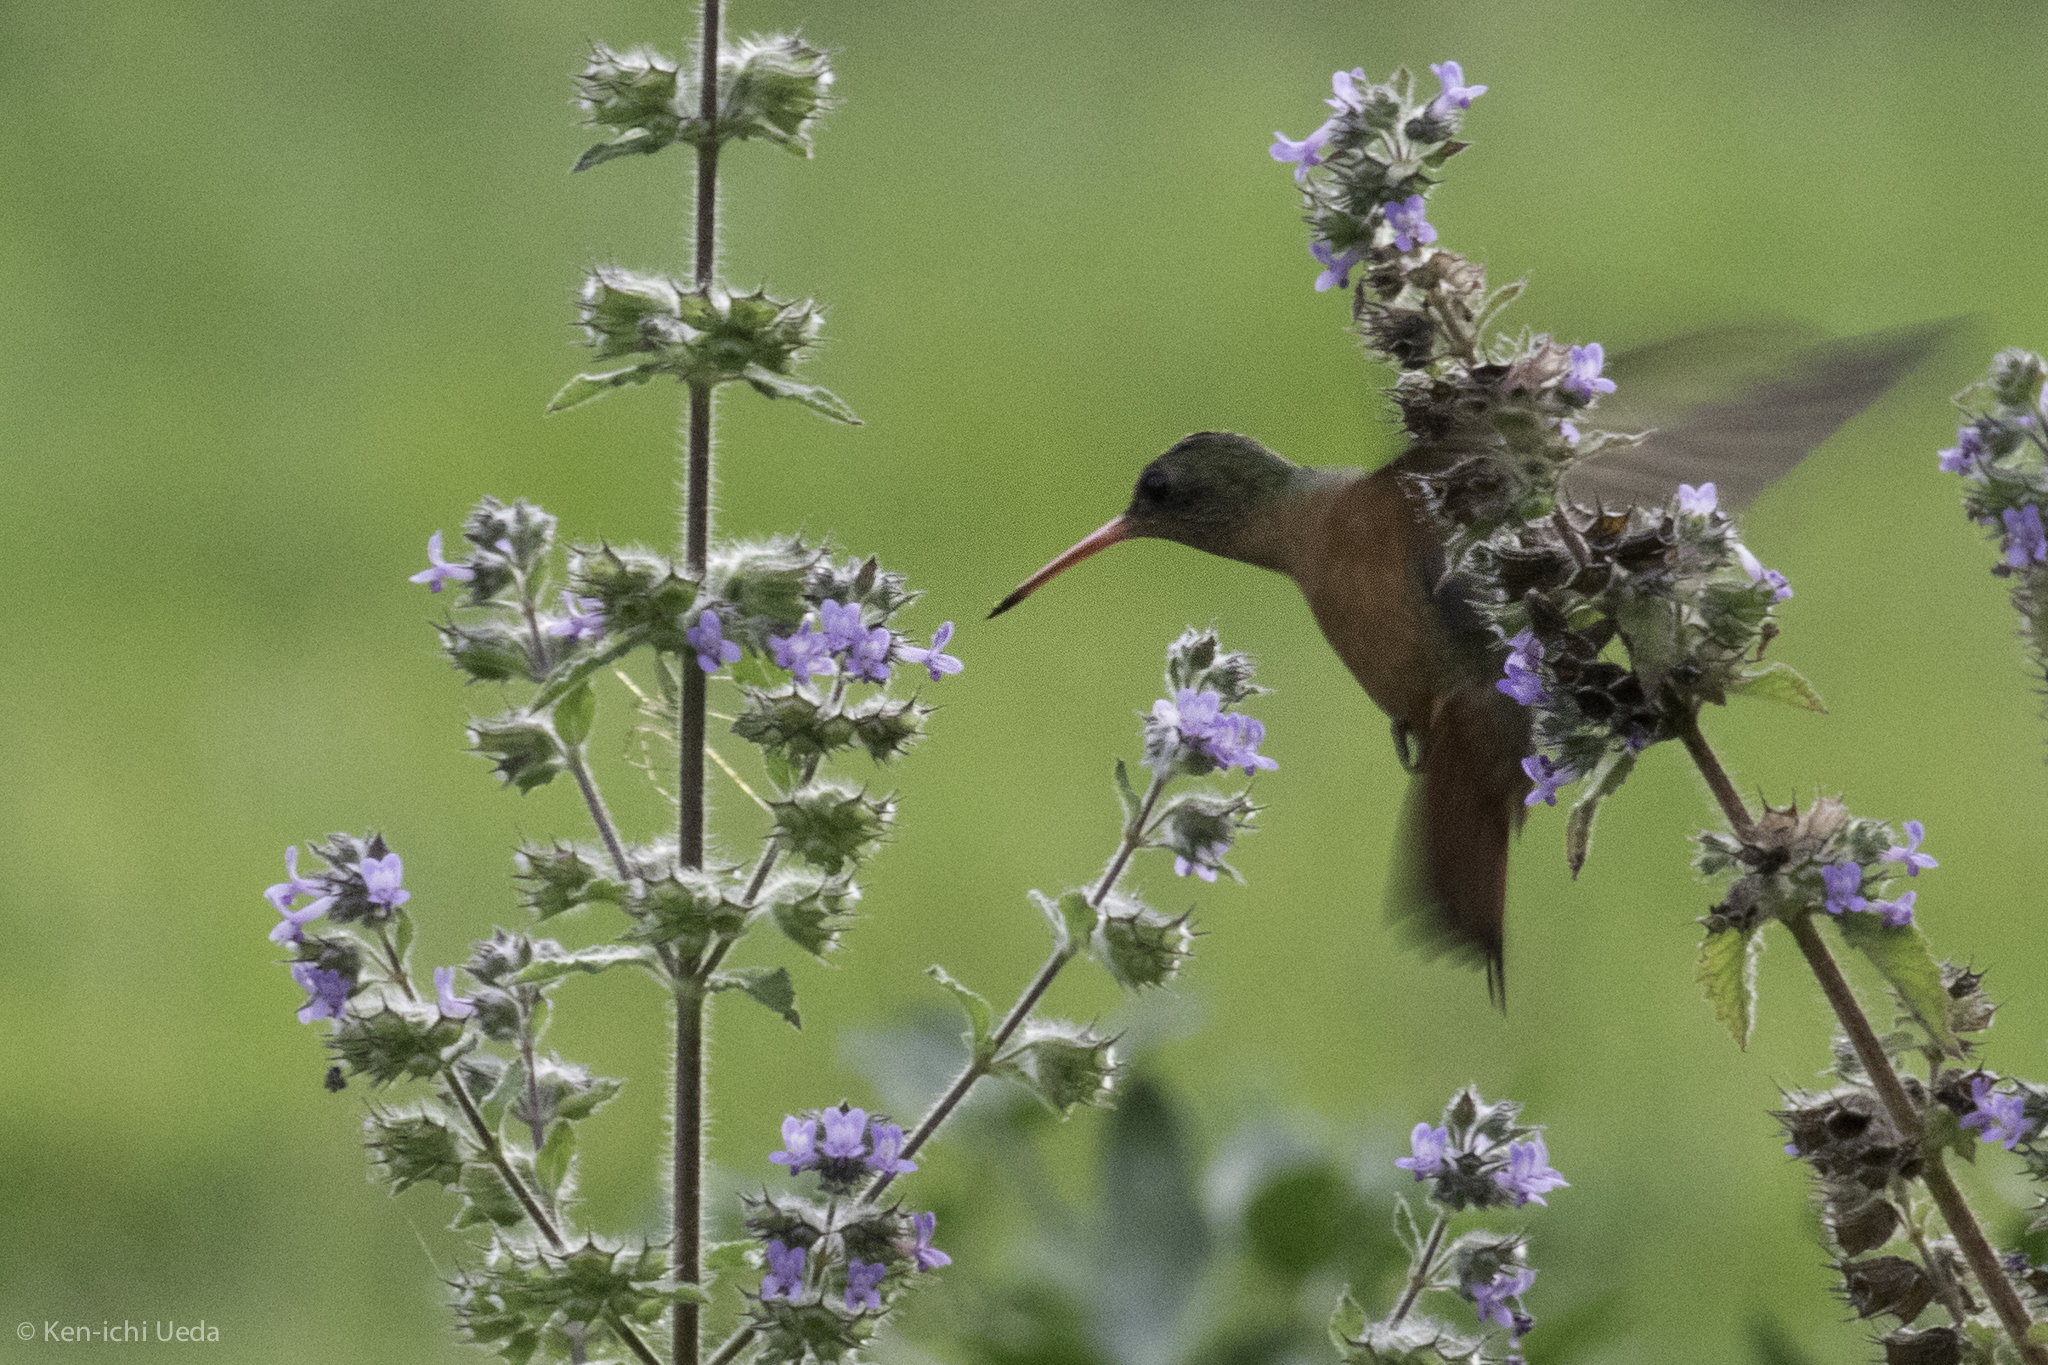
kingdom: Animalia
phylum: Chordata
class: Aves
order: Apodiformes
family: Trochilidae
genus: Amazilia
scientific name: Amazilia rutila
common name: Cinnamon hummingbird
